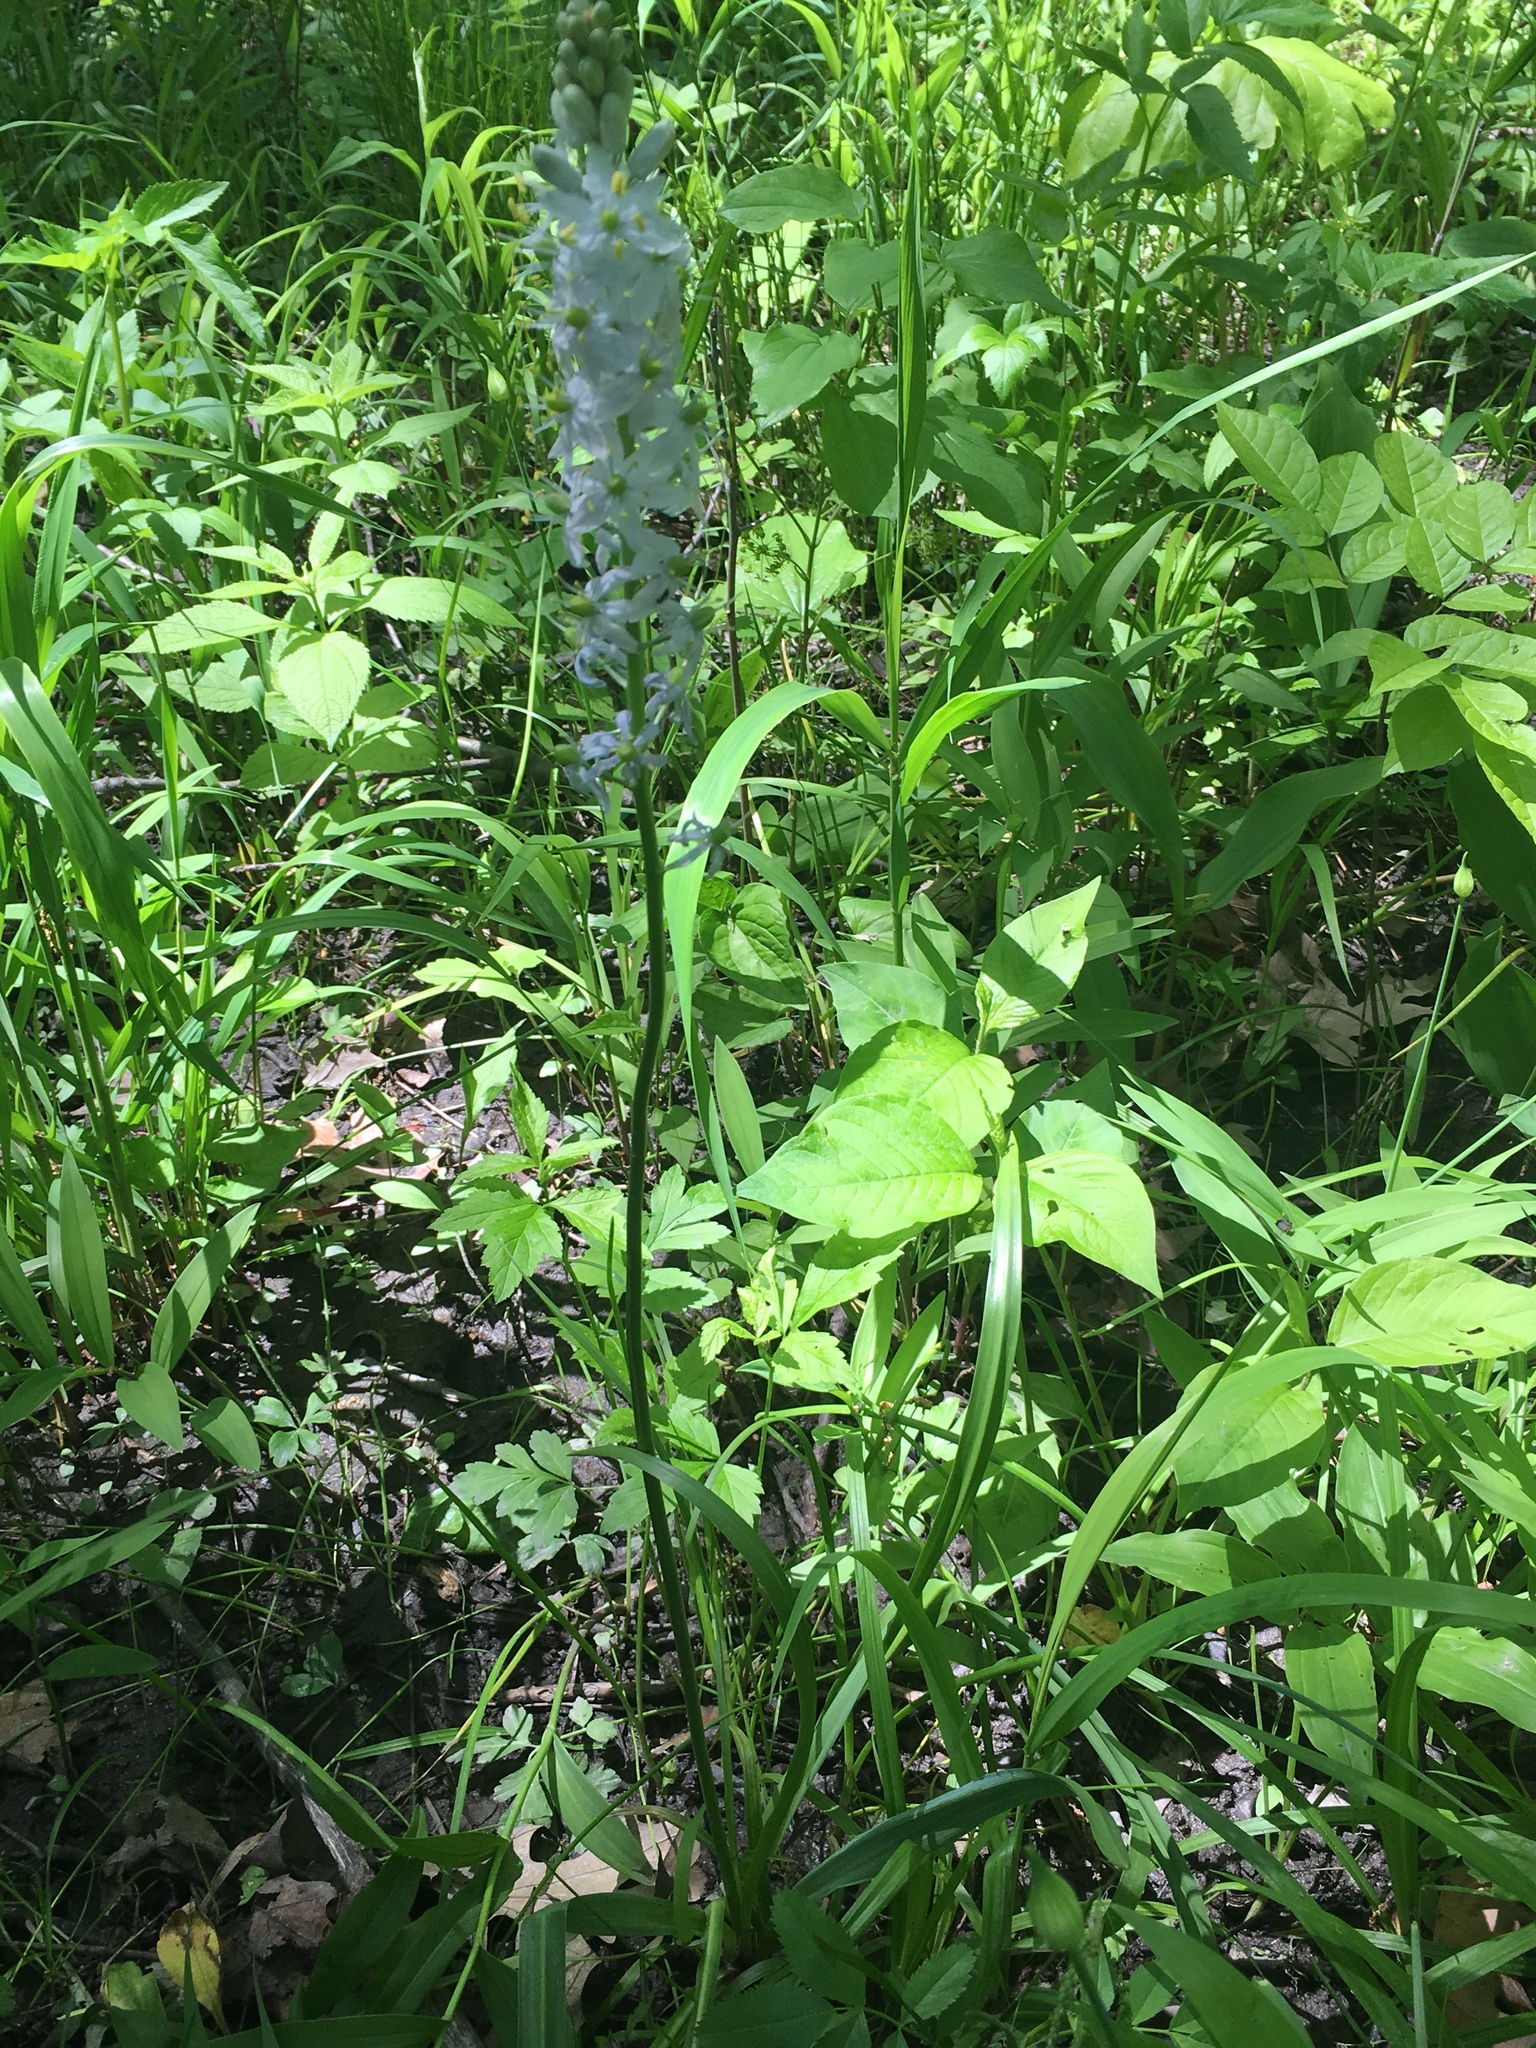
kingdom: Plantae
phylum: Tracheophyta
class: Liliopsida
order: Asparagales
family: Asparagaceae
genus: Camassia
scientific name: Camassia scilloides
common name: Wild hyacinth
